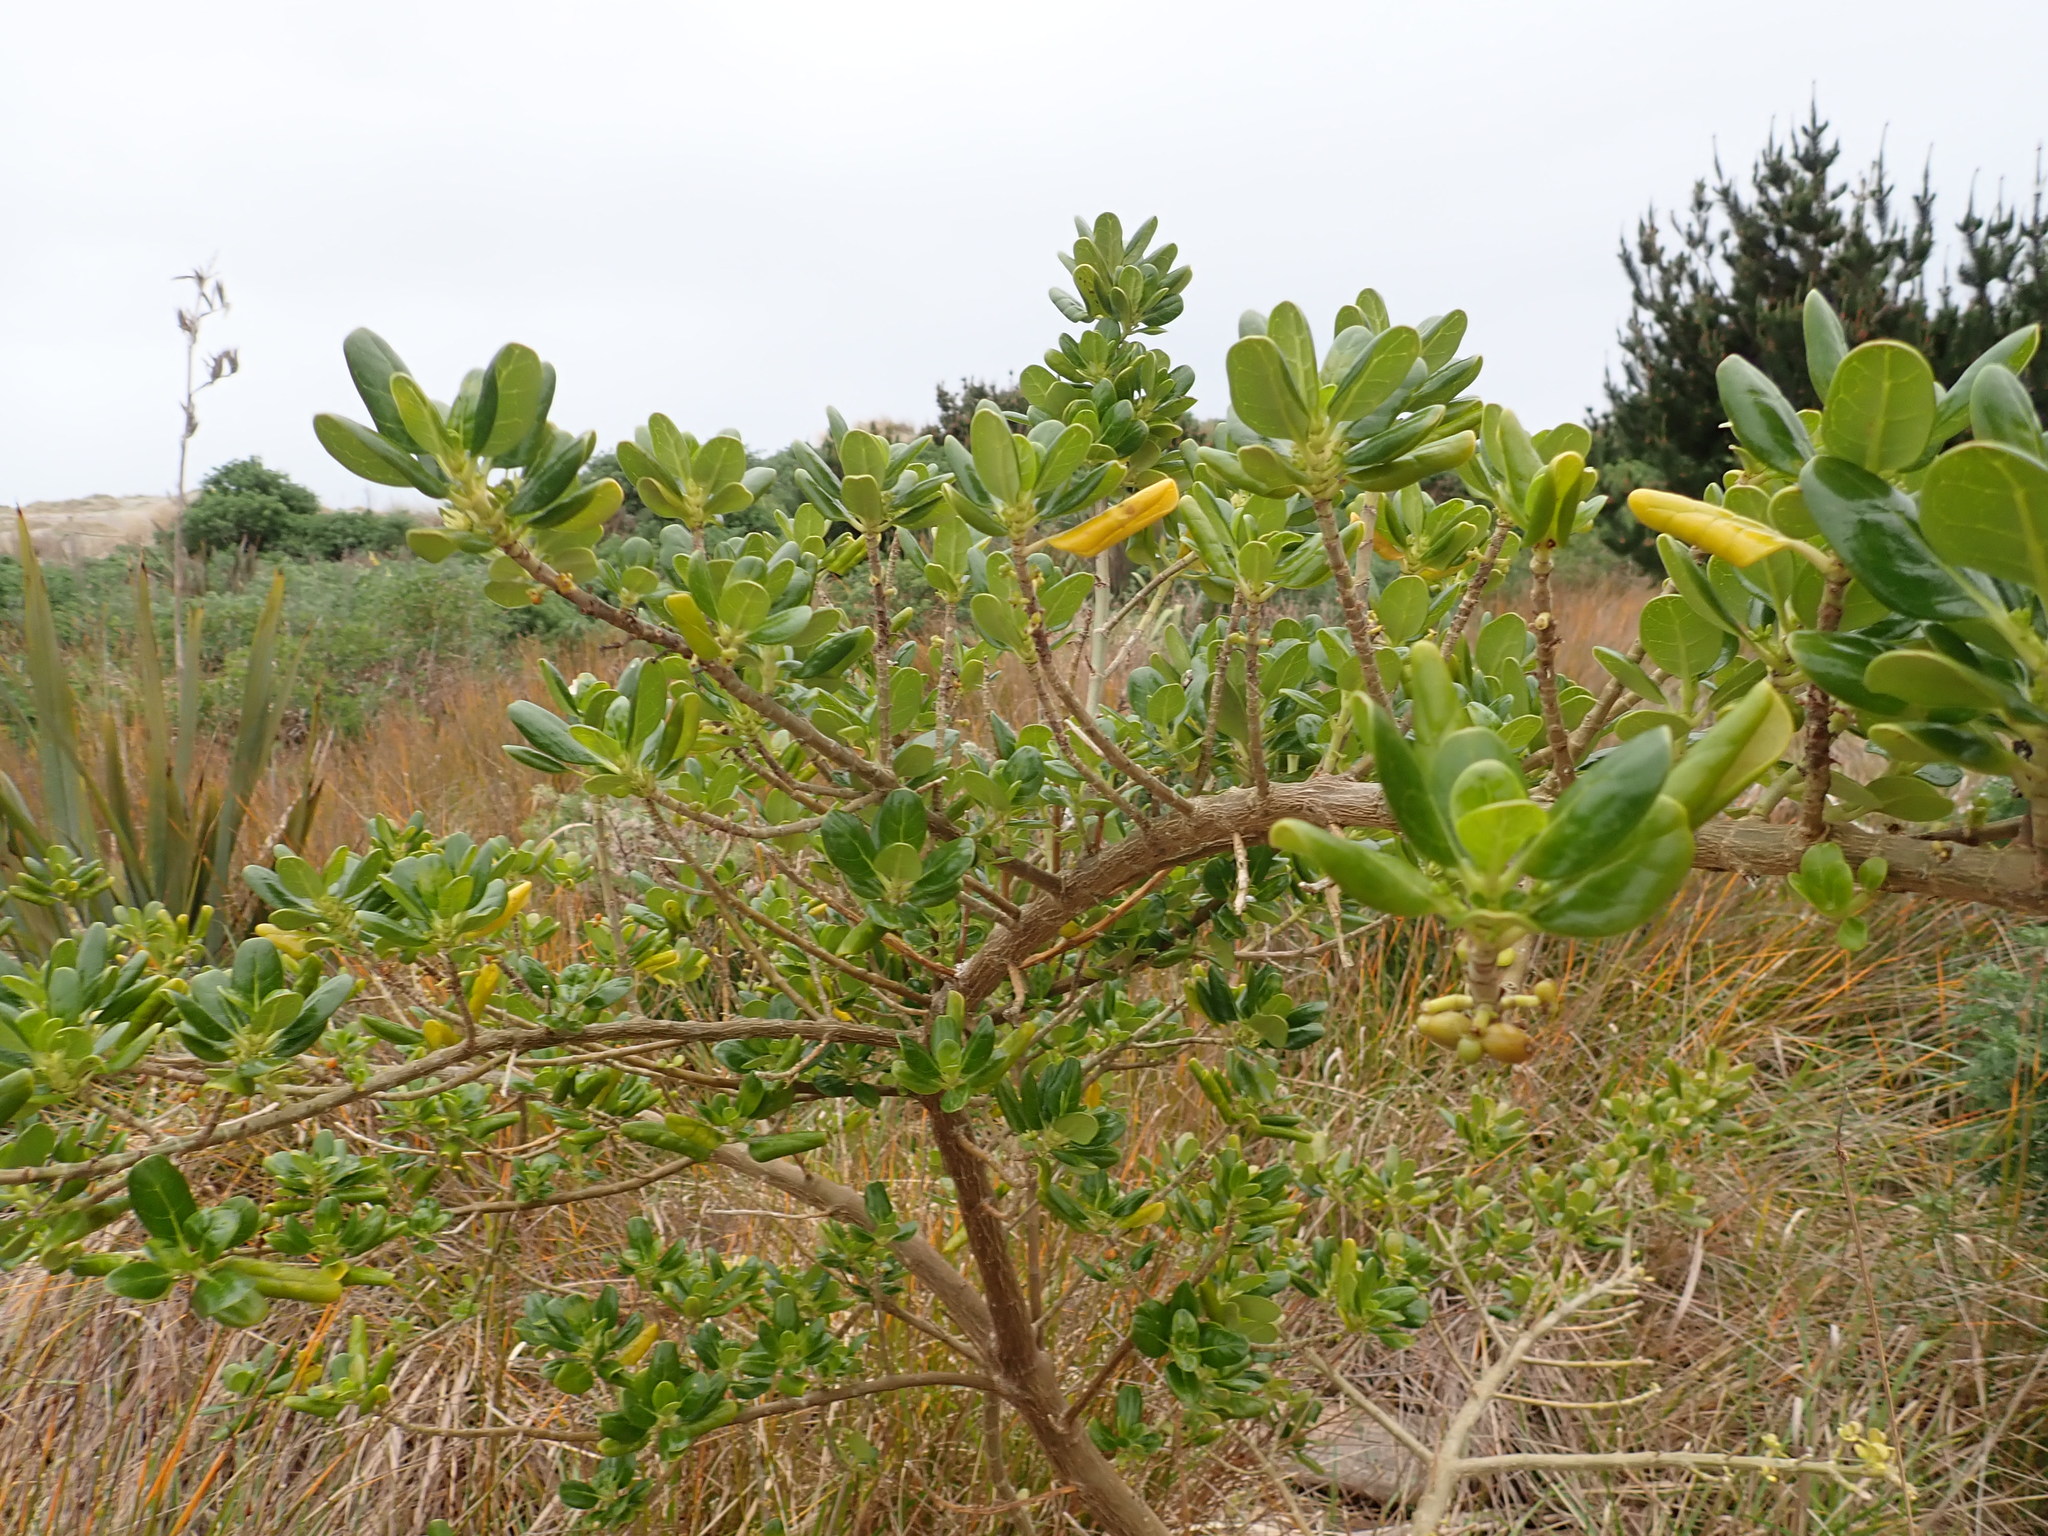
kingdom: Plantae
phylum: Tracheophyta
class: Magnoliopsida
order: Gentianales
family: Rubiaceae
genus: Coprosma
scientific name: Coprosma repens
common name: Tree bedstraw
